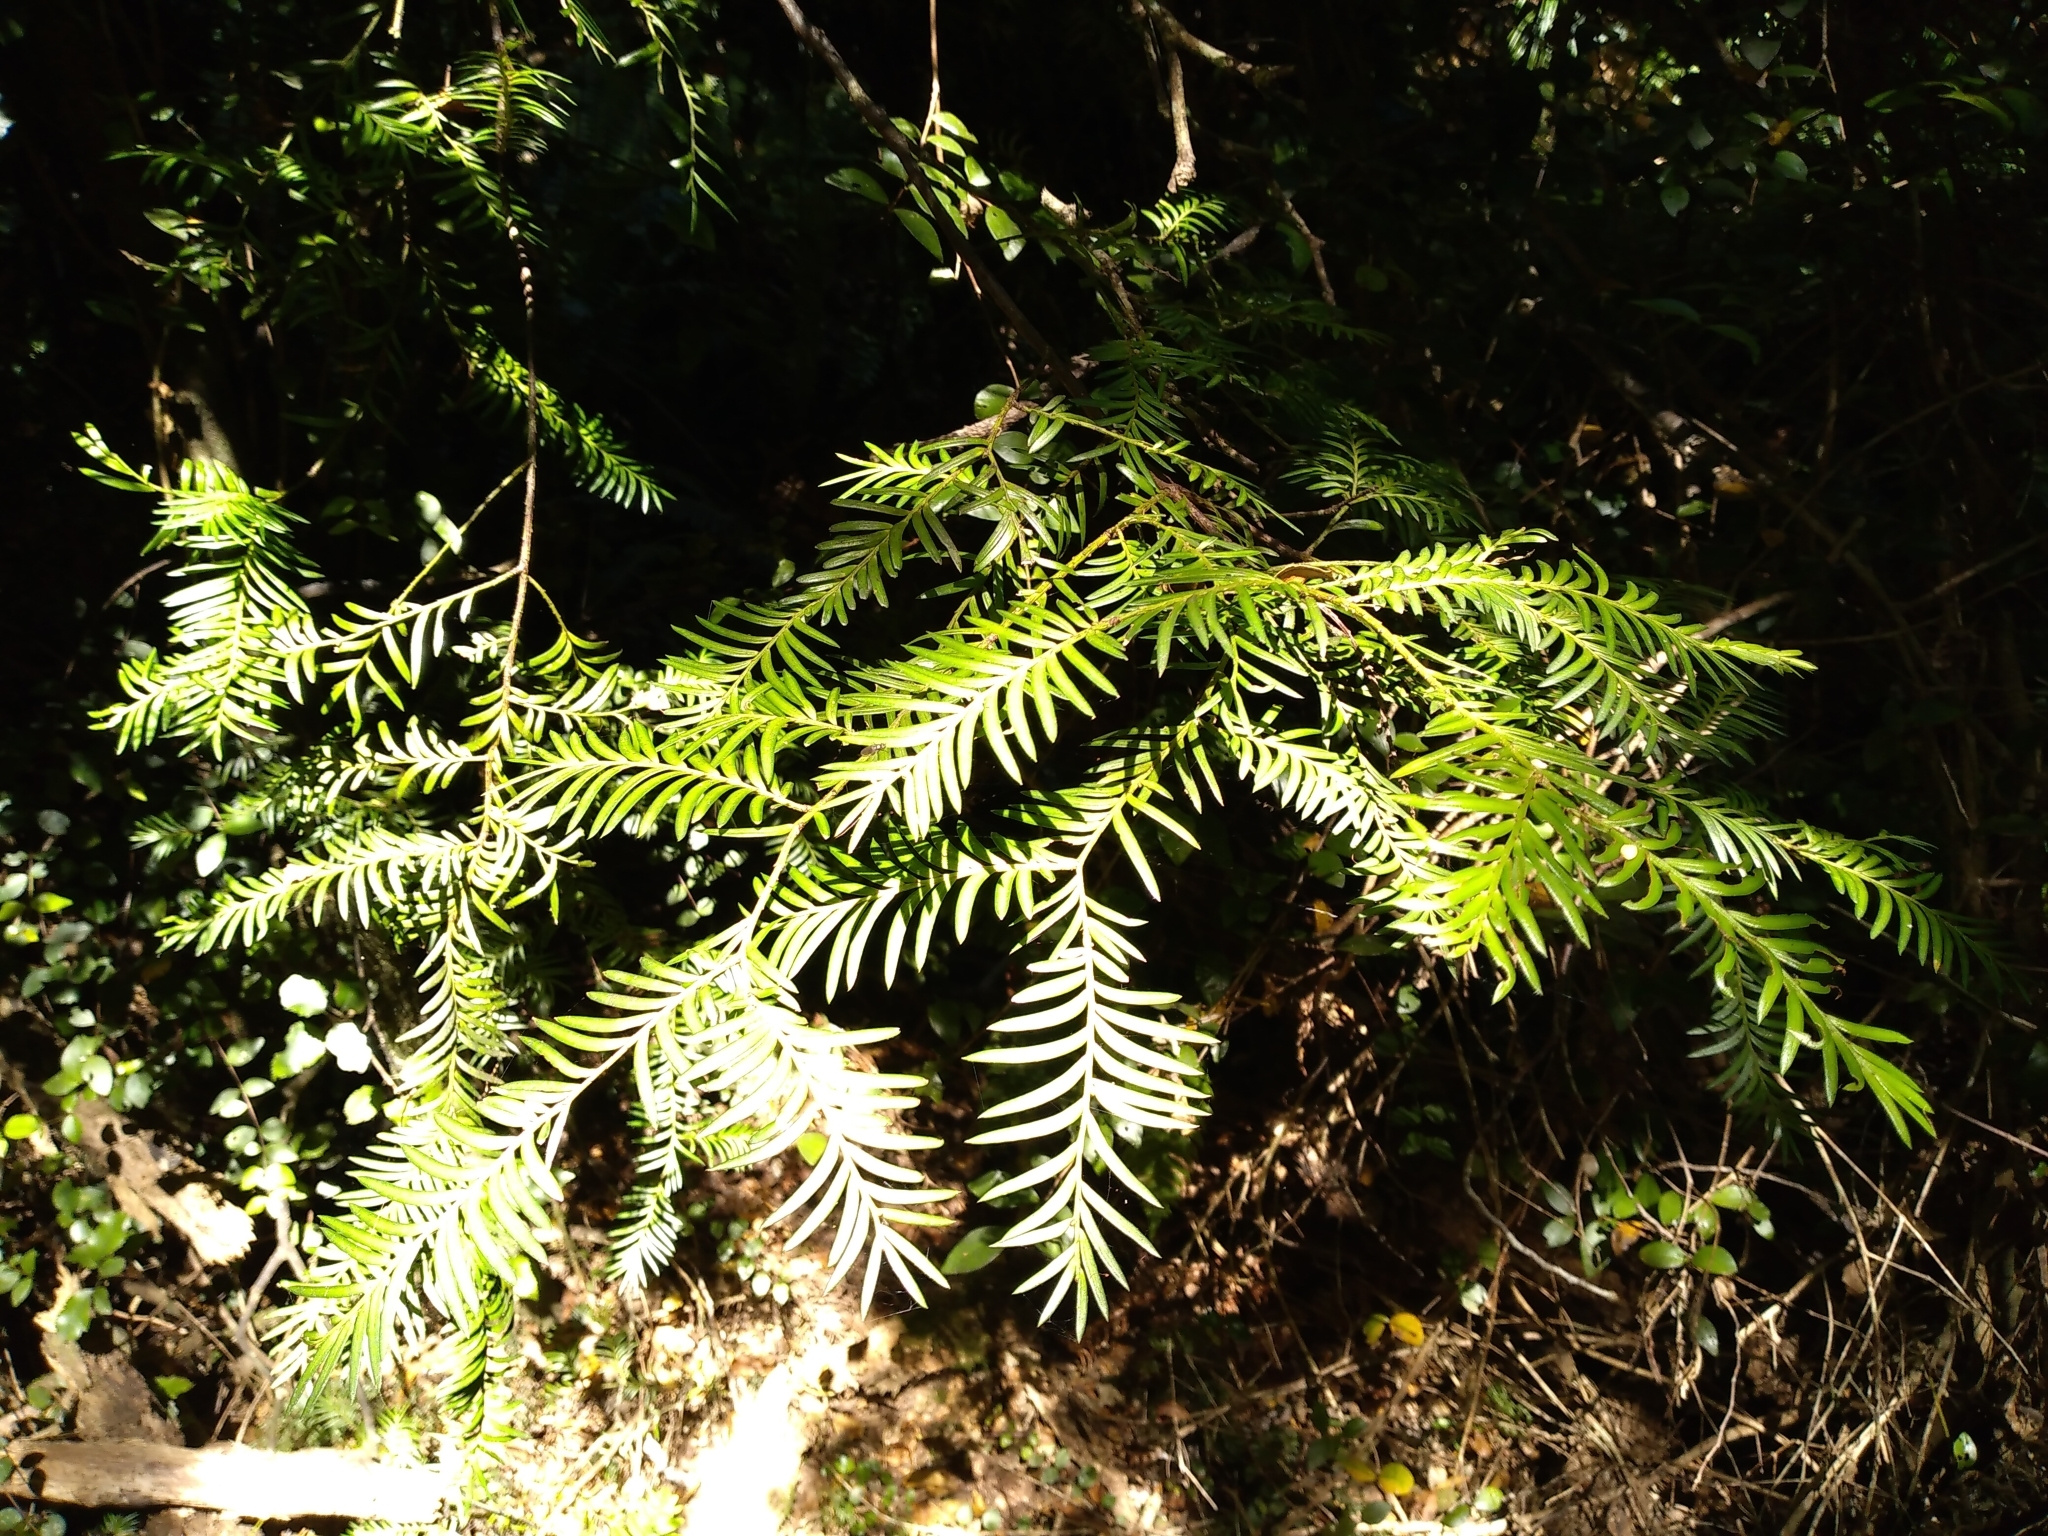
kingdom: Plantae
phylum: Tracheophyta
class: Pinopsida
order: Pinales
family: Podocarpaceae
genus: Prumnopitys
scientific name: Prumnopitys ferruginea
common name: Brown pine
